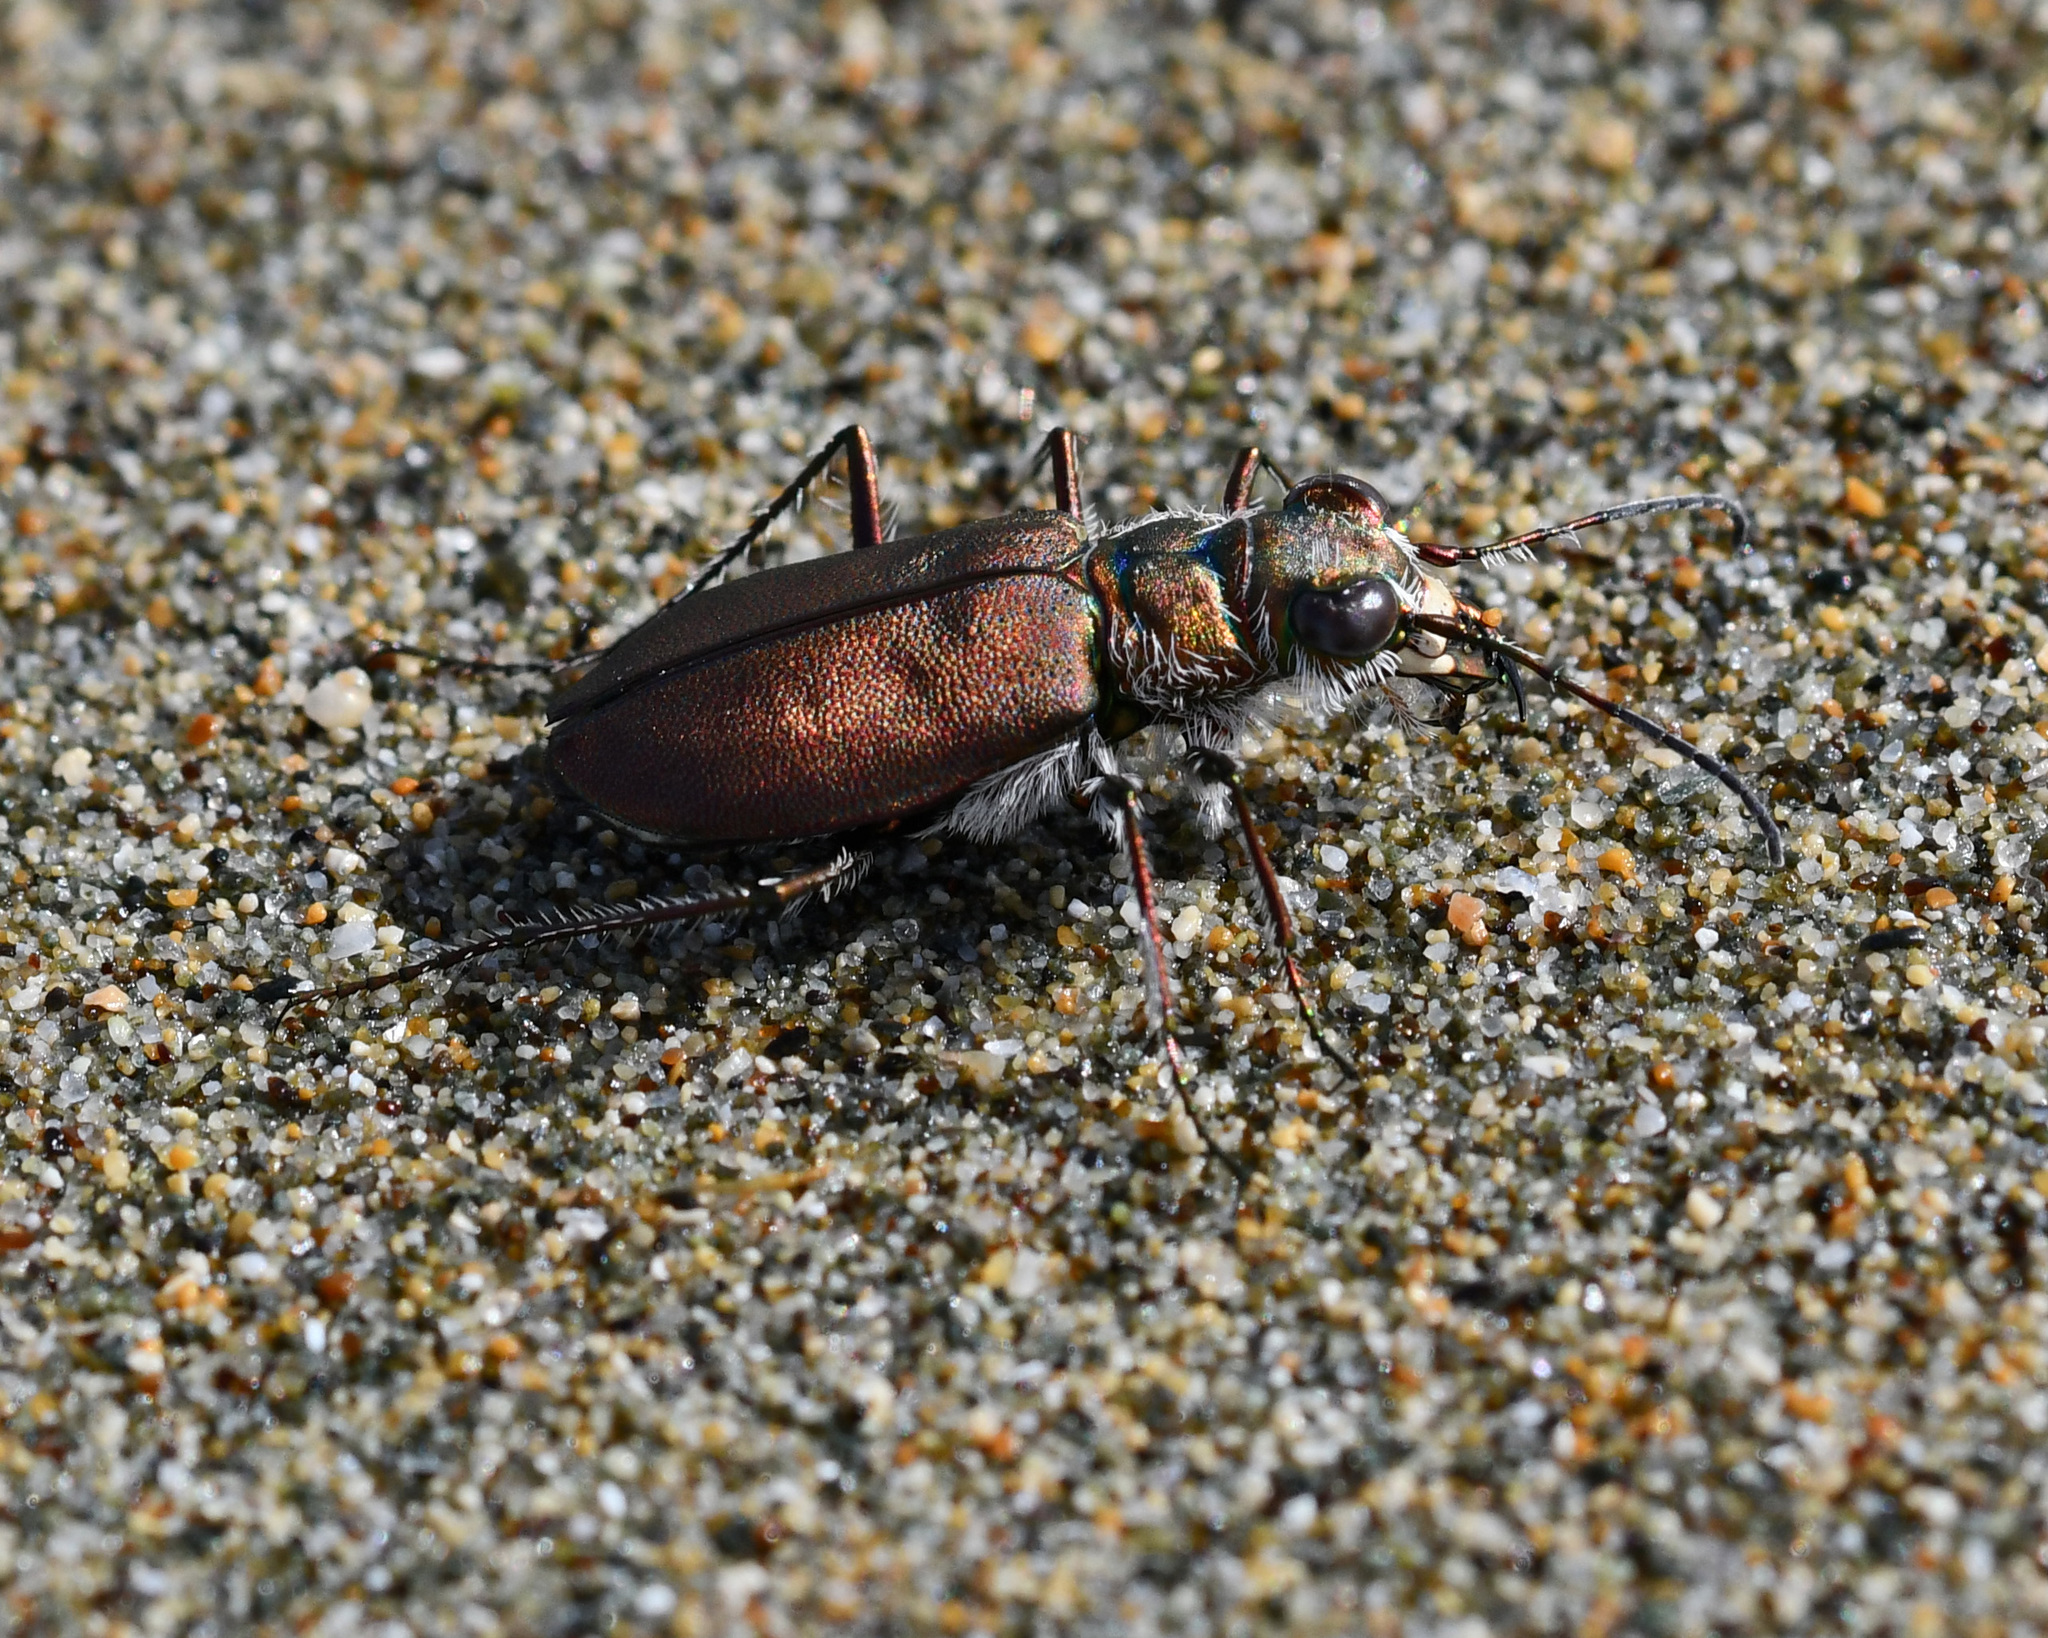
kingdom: Animalia
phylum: Arthropoda
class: Insecta
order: Coleoptera
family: Carabidae
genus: Cicindela
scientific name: Cicindela concolor
